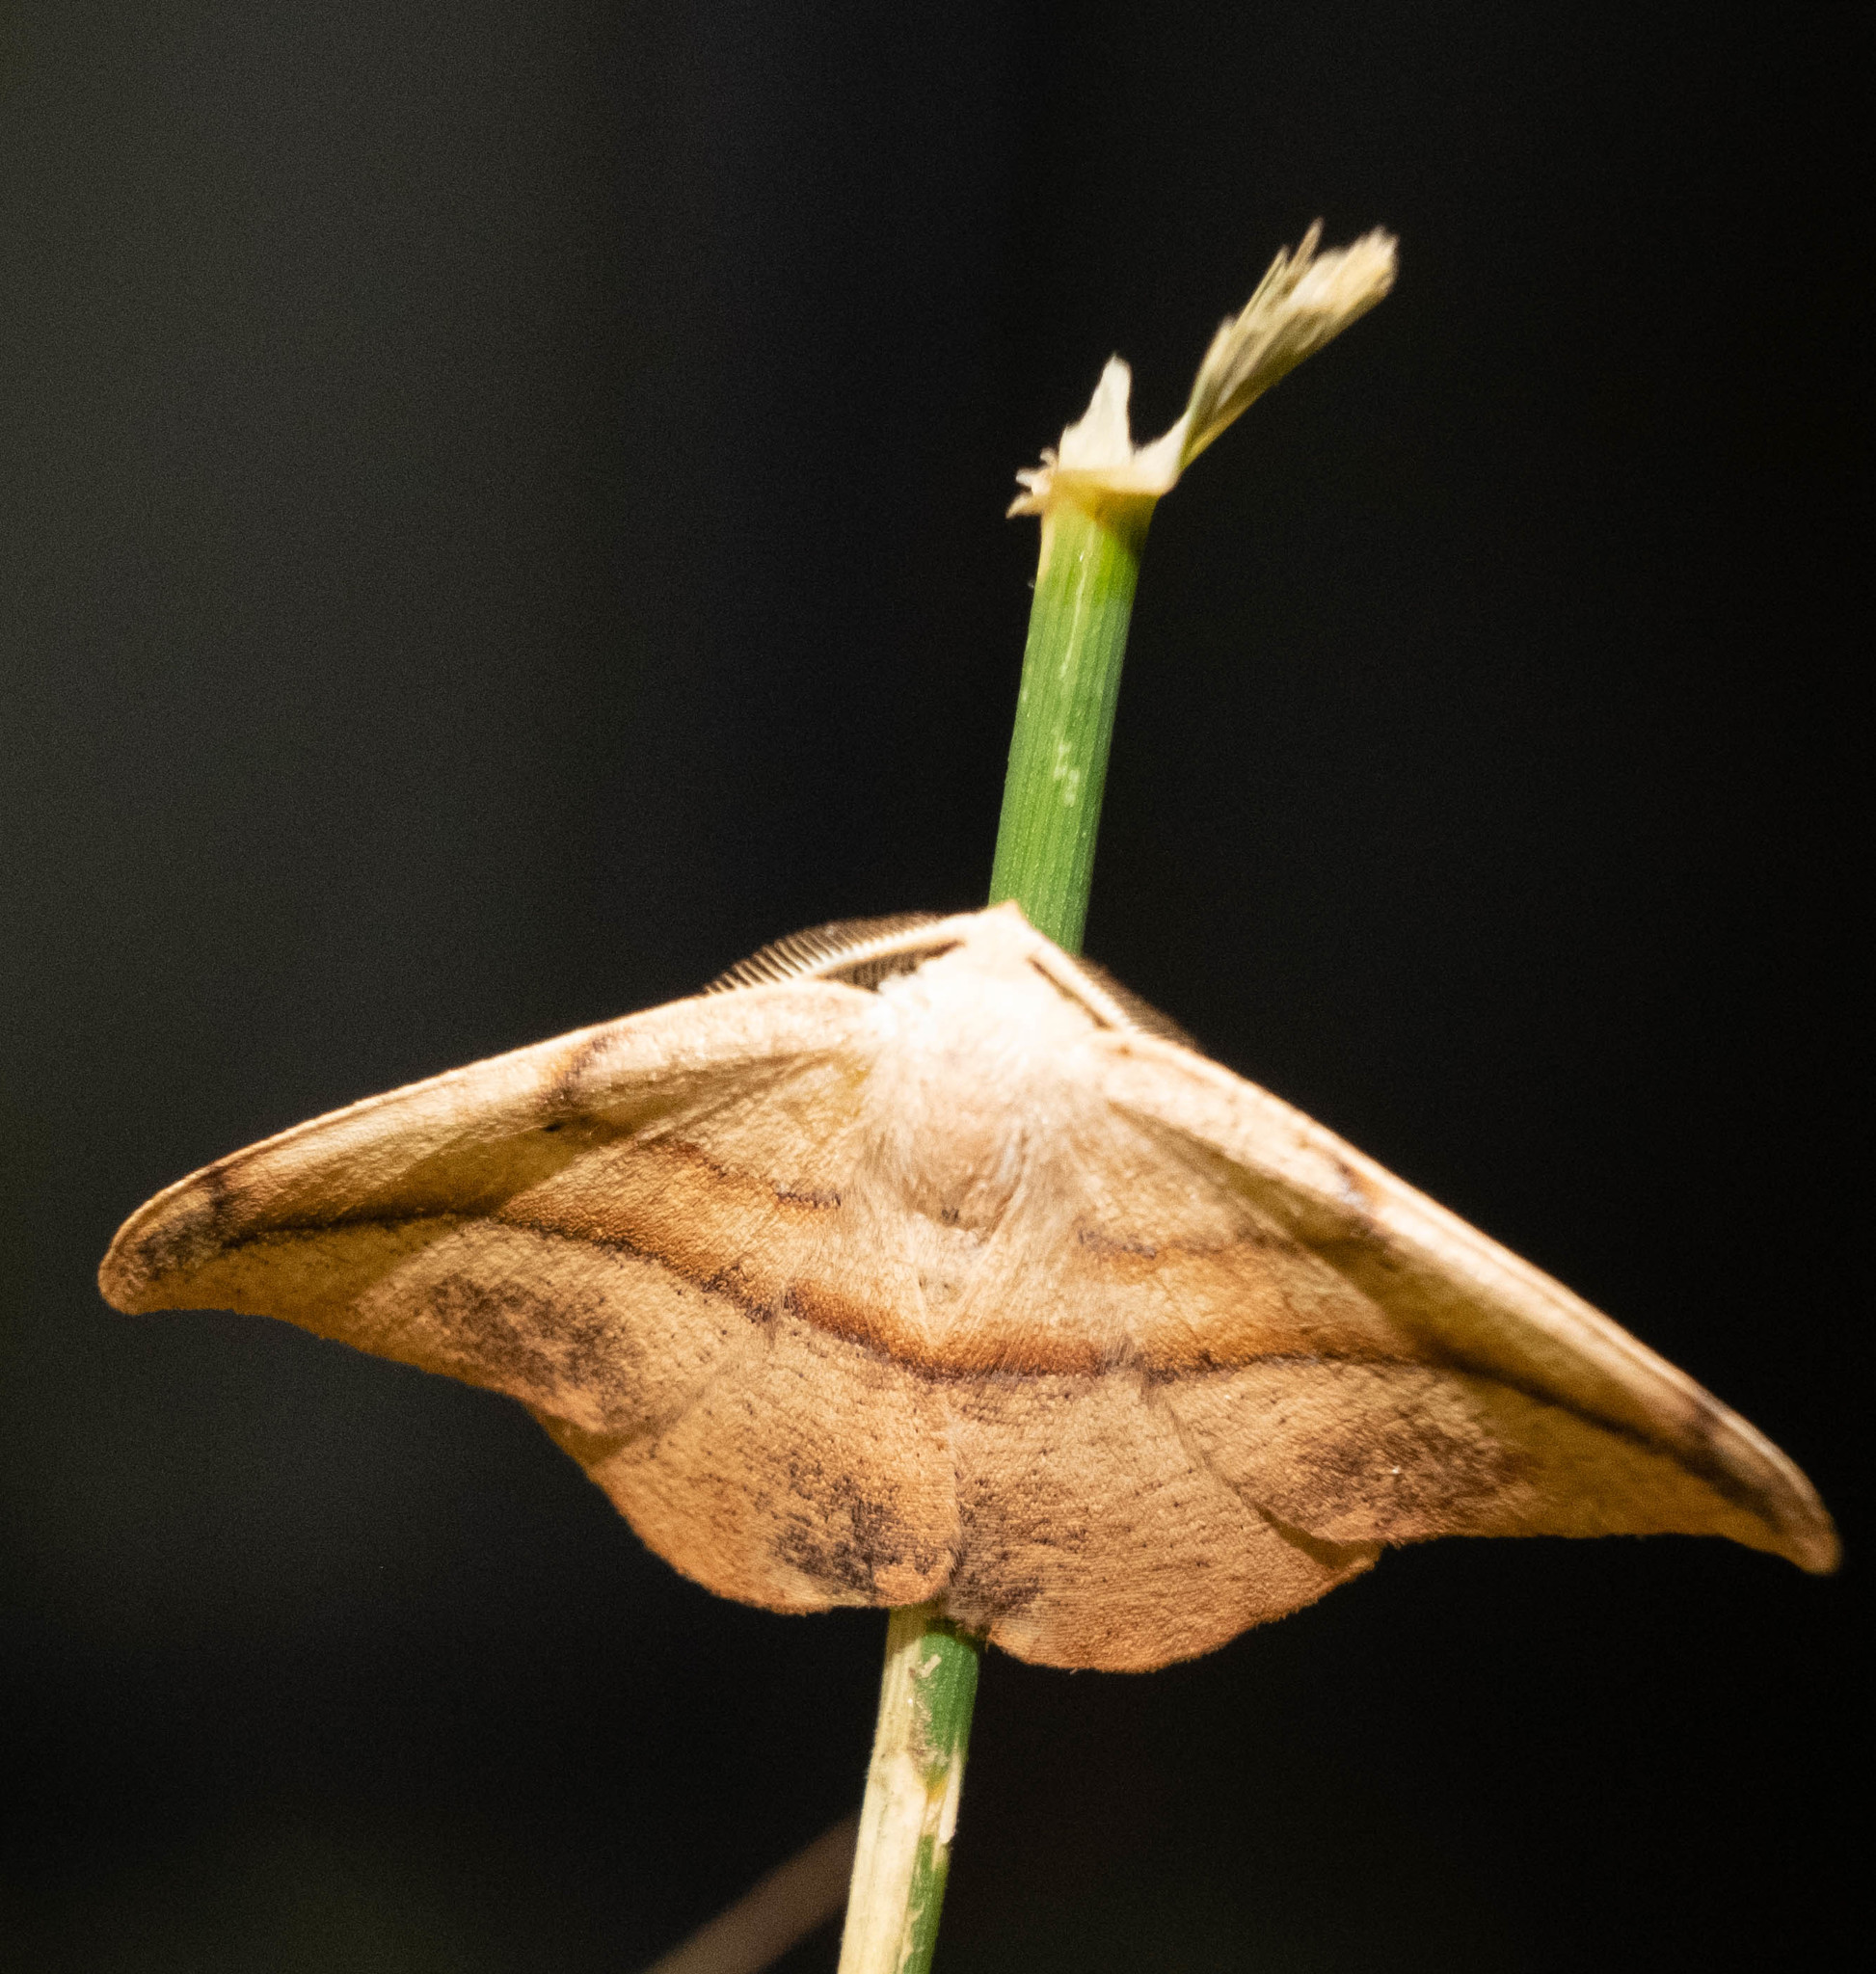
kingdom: Animalia
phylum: Arthropoda
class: Insecta
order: Lepidoptera
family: Geometridae
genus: Patalene
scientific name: Patalene olyzonaria
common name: Juniper geometer moth
